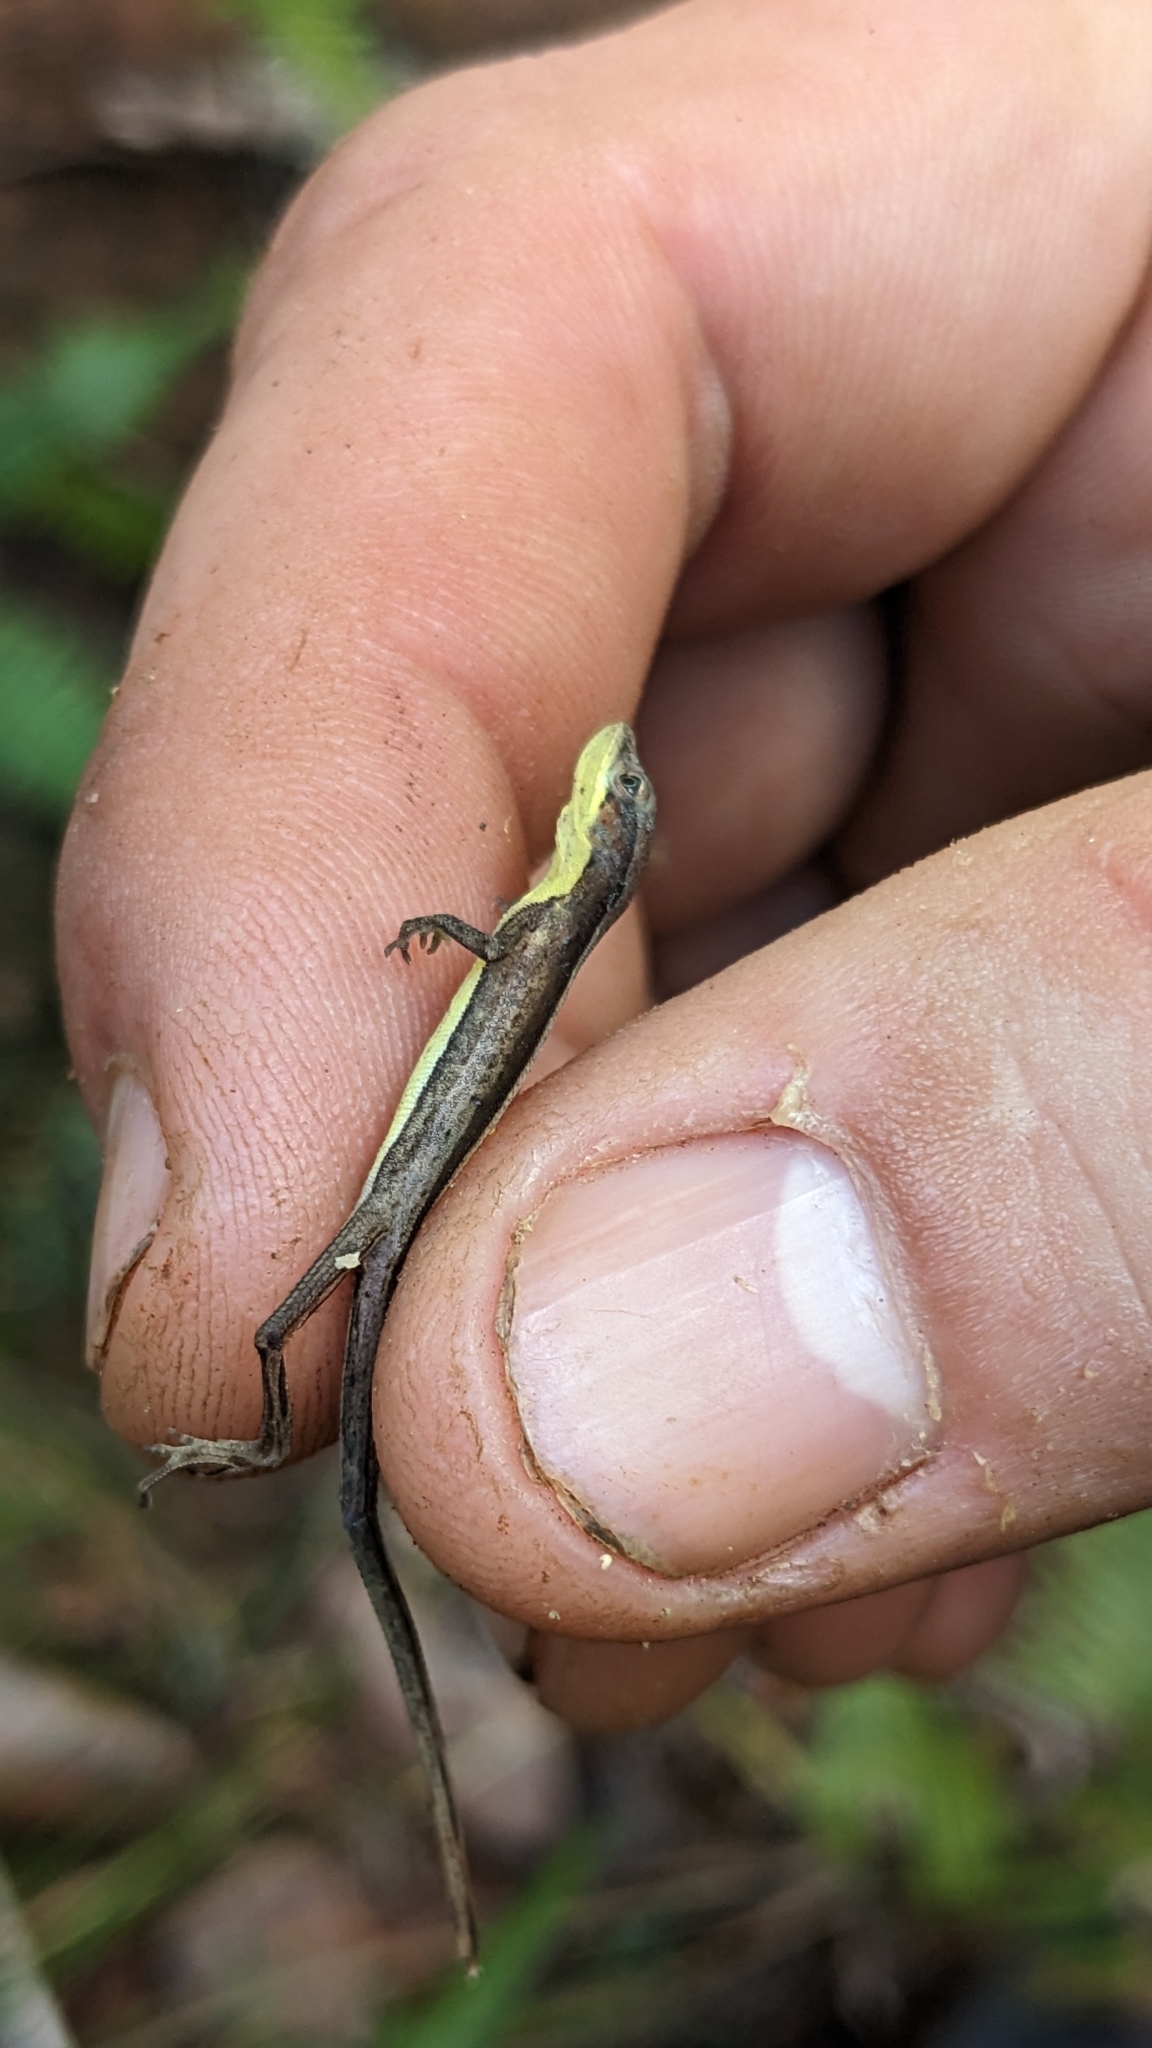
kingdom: Animalia
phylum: Chordata
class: Squamata
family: Dactyloidae
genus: Anolis
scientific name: Anolis fugitivus
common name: Moa anole
